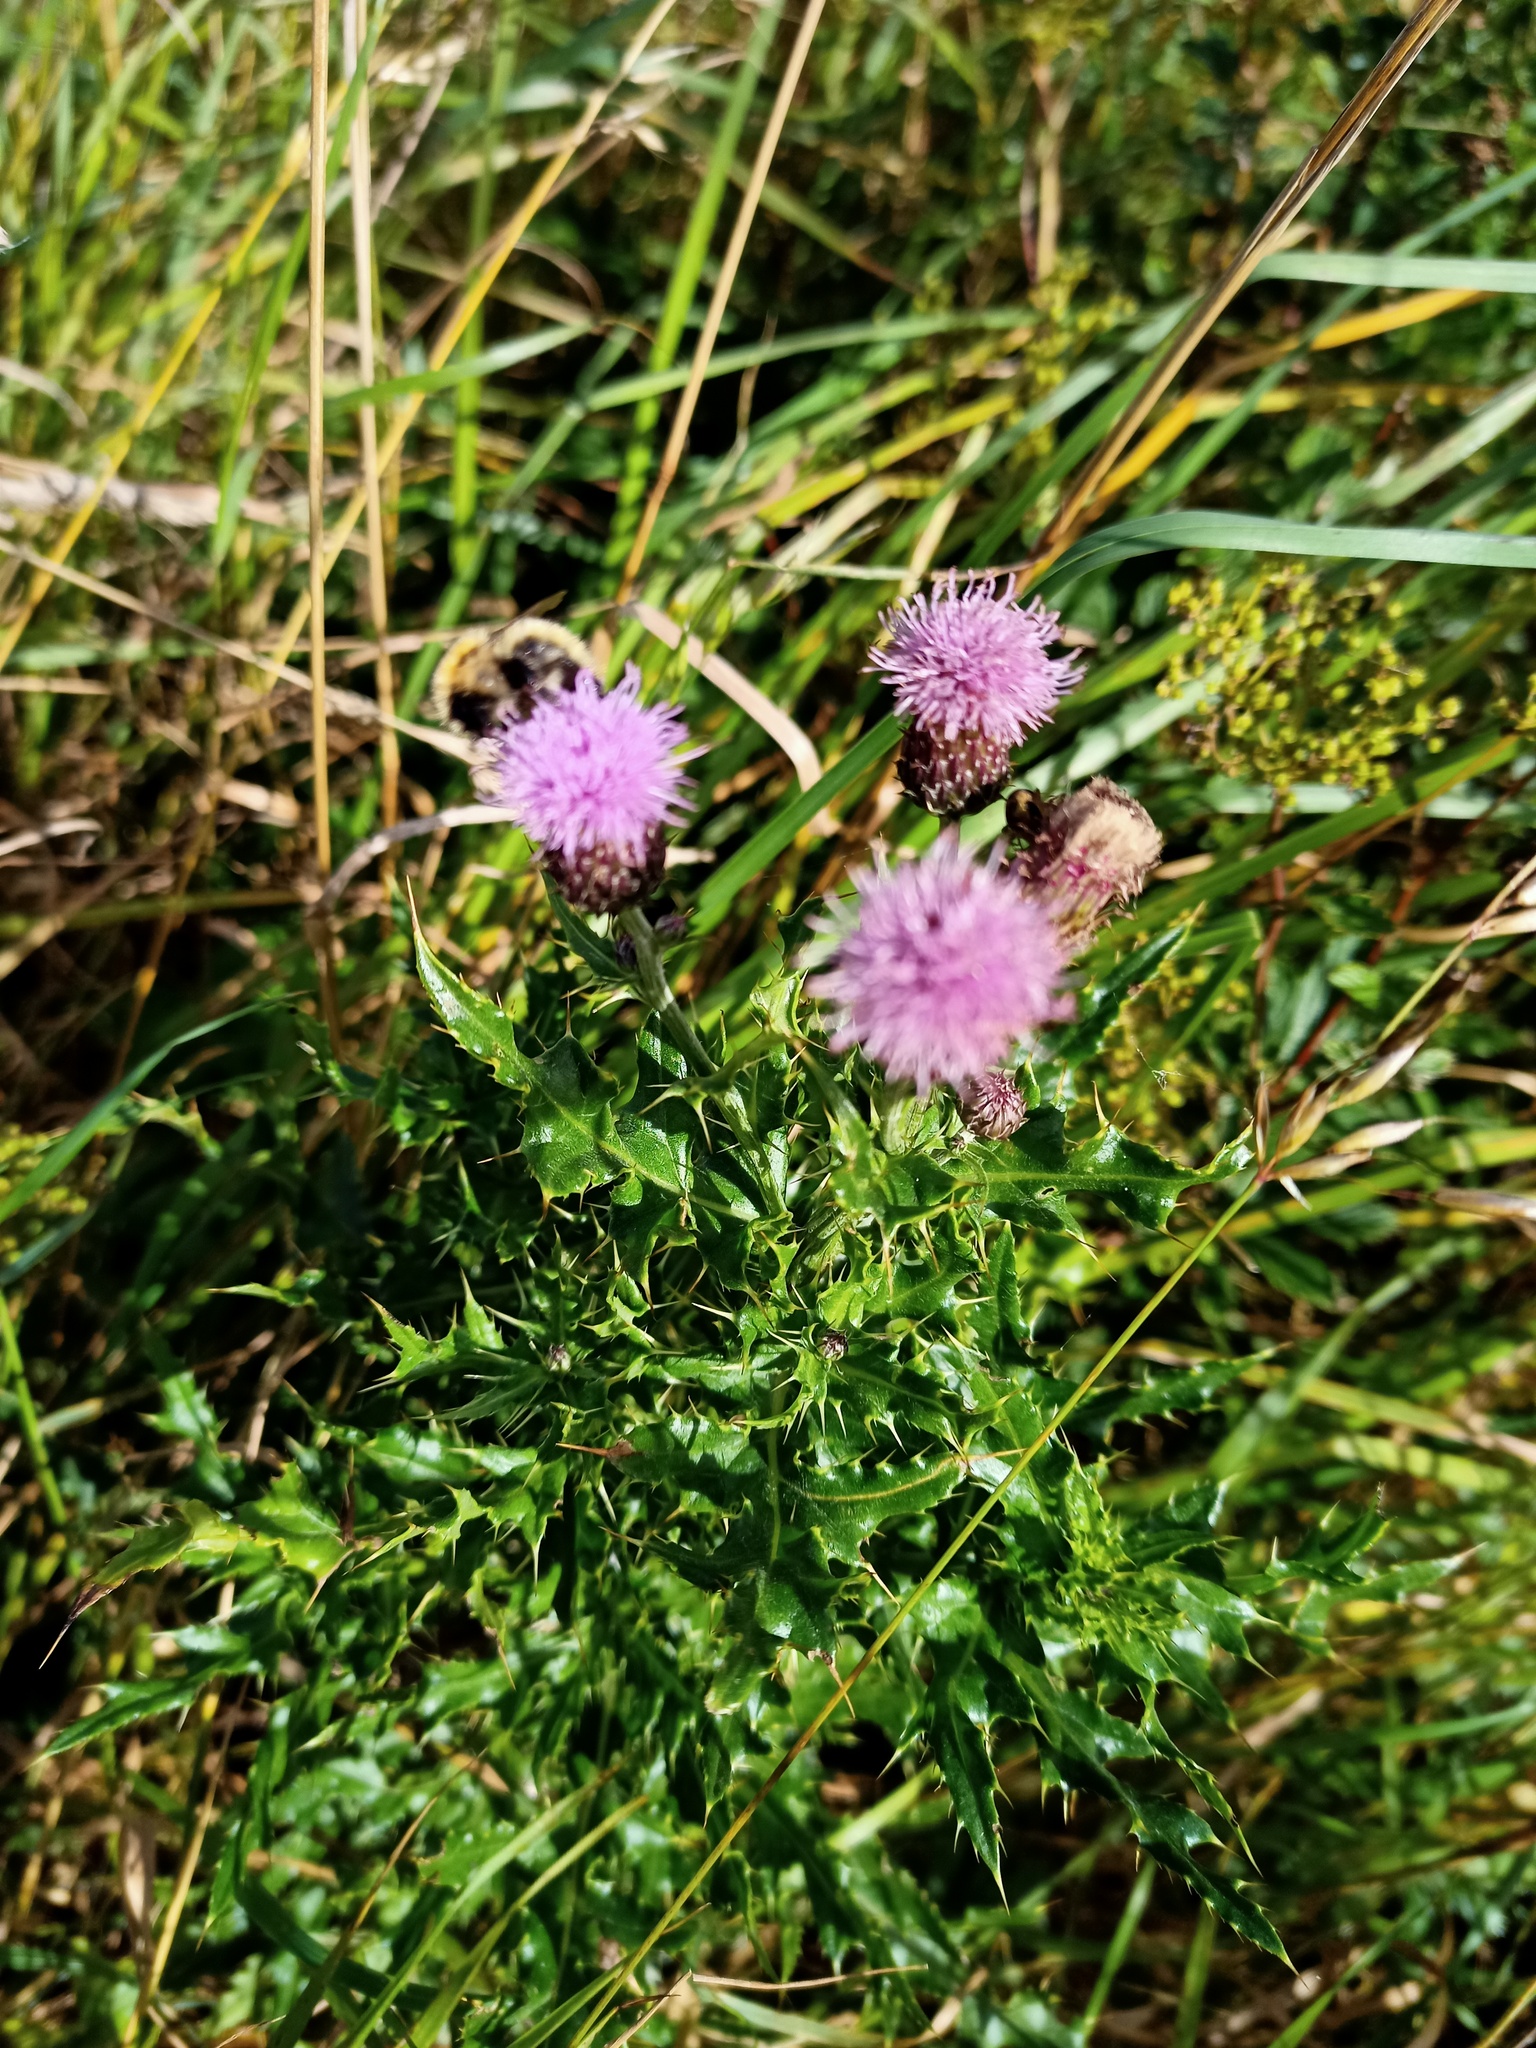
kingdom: Plantae
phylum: Tracheophyta
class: Magnoliopsida
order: Asterales
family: Asteraceae
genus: Cirsium
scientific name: Cirsium arvense
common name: Creeping thistle
